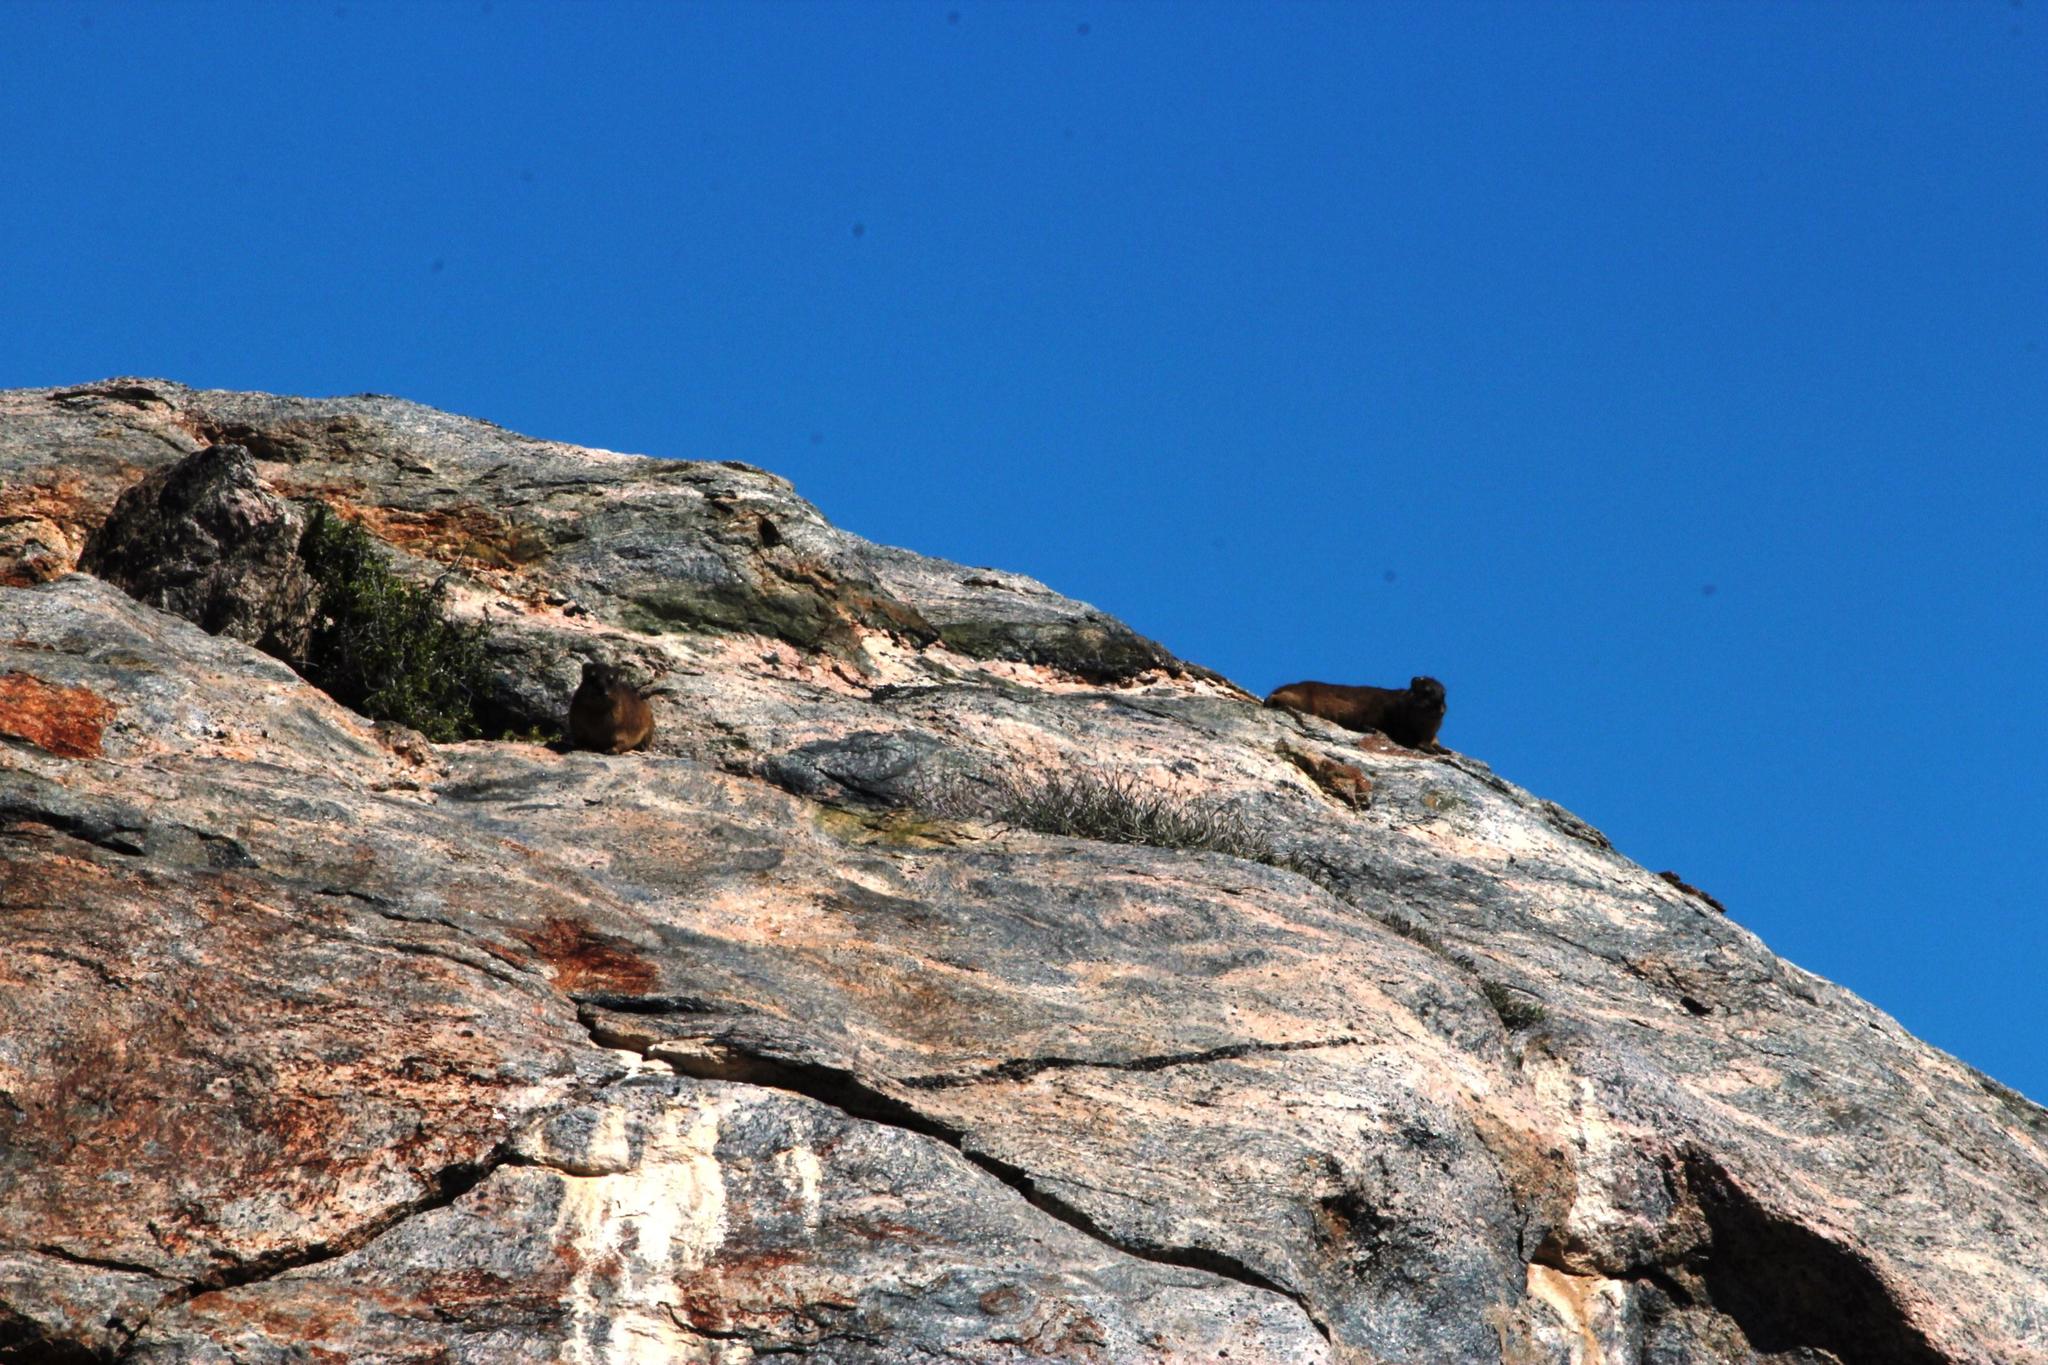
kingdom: Animalia
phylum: Chordata
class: Mammalia
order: Hyracoidea
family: Procaviidae
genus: Procavia
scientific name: Procavia capensis
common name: Rock hyrax
